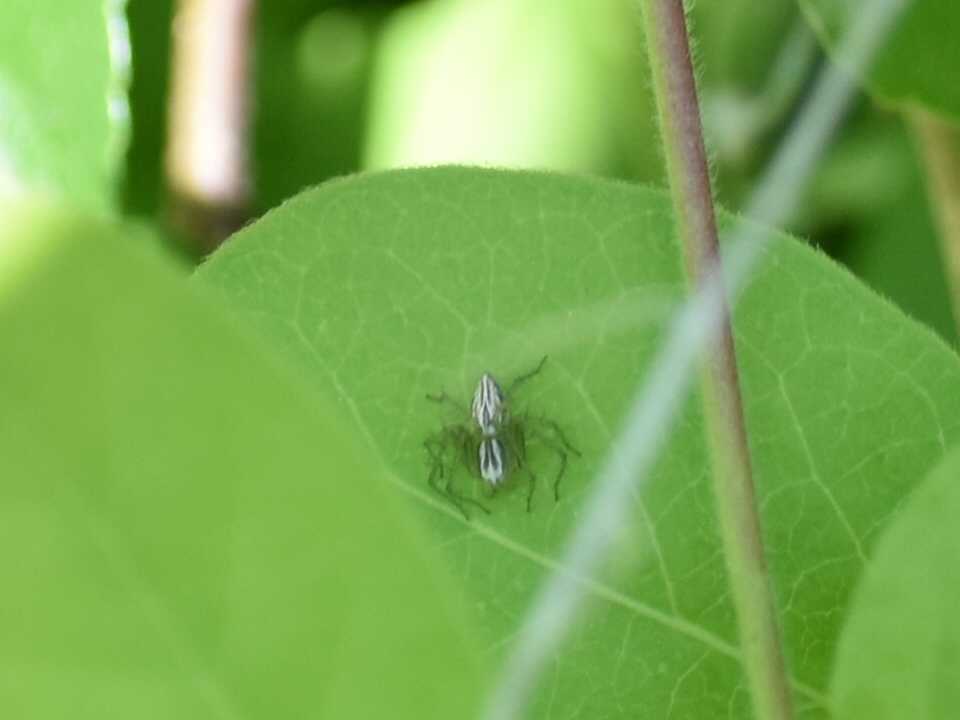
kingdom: Animalia
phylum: Arthropoda
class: Arachnida
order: Araneae
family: Oxyopidae
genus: Oxyopes
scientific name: Oxyopes salticus
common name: Lynx spiders
